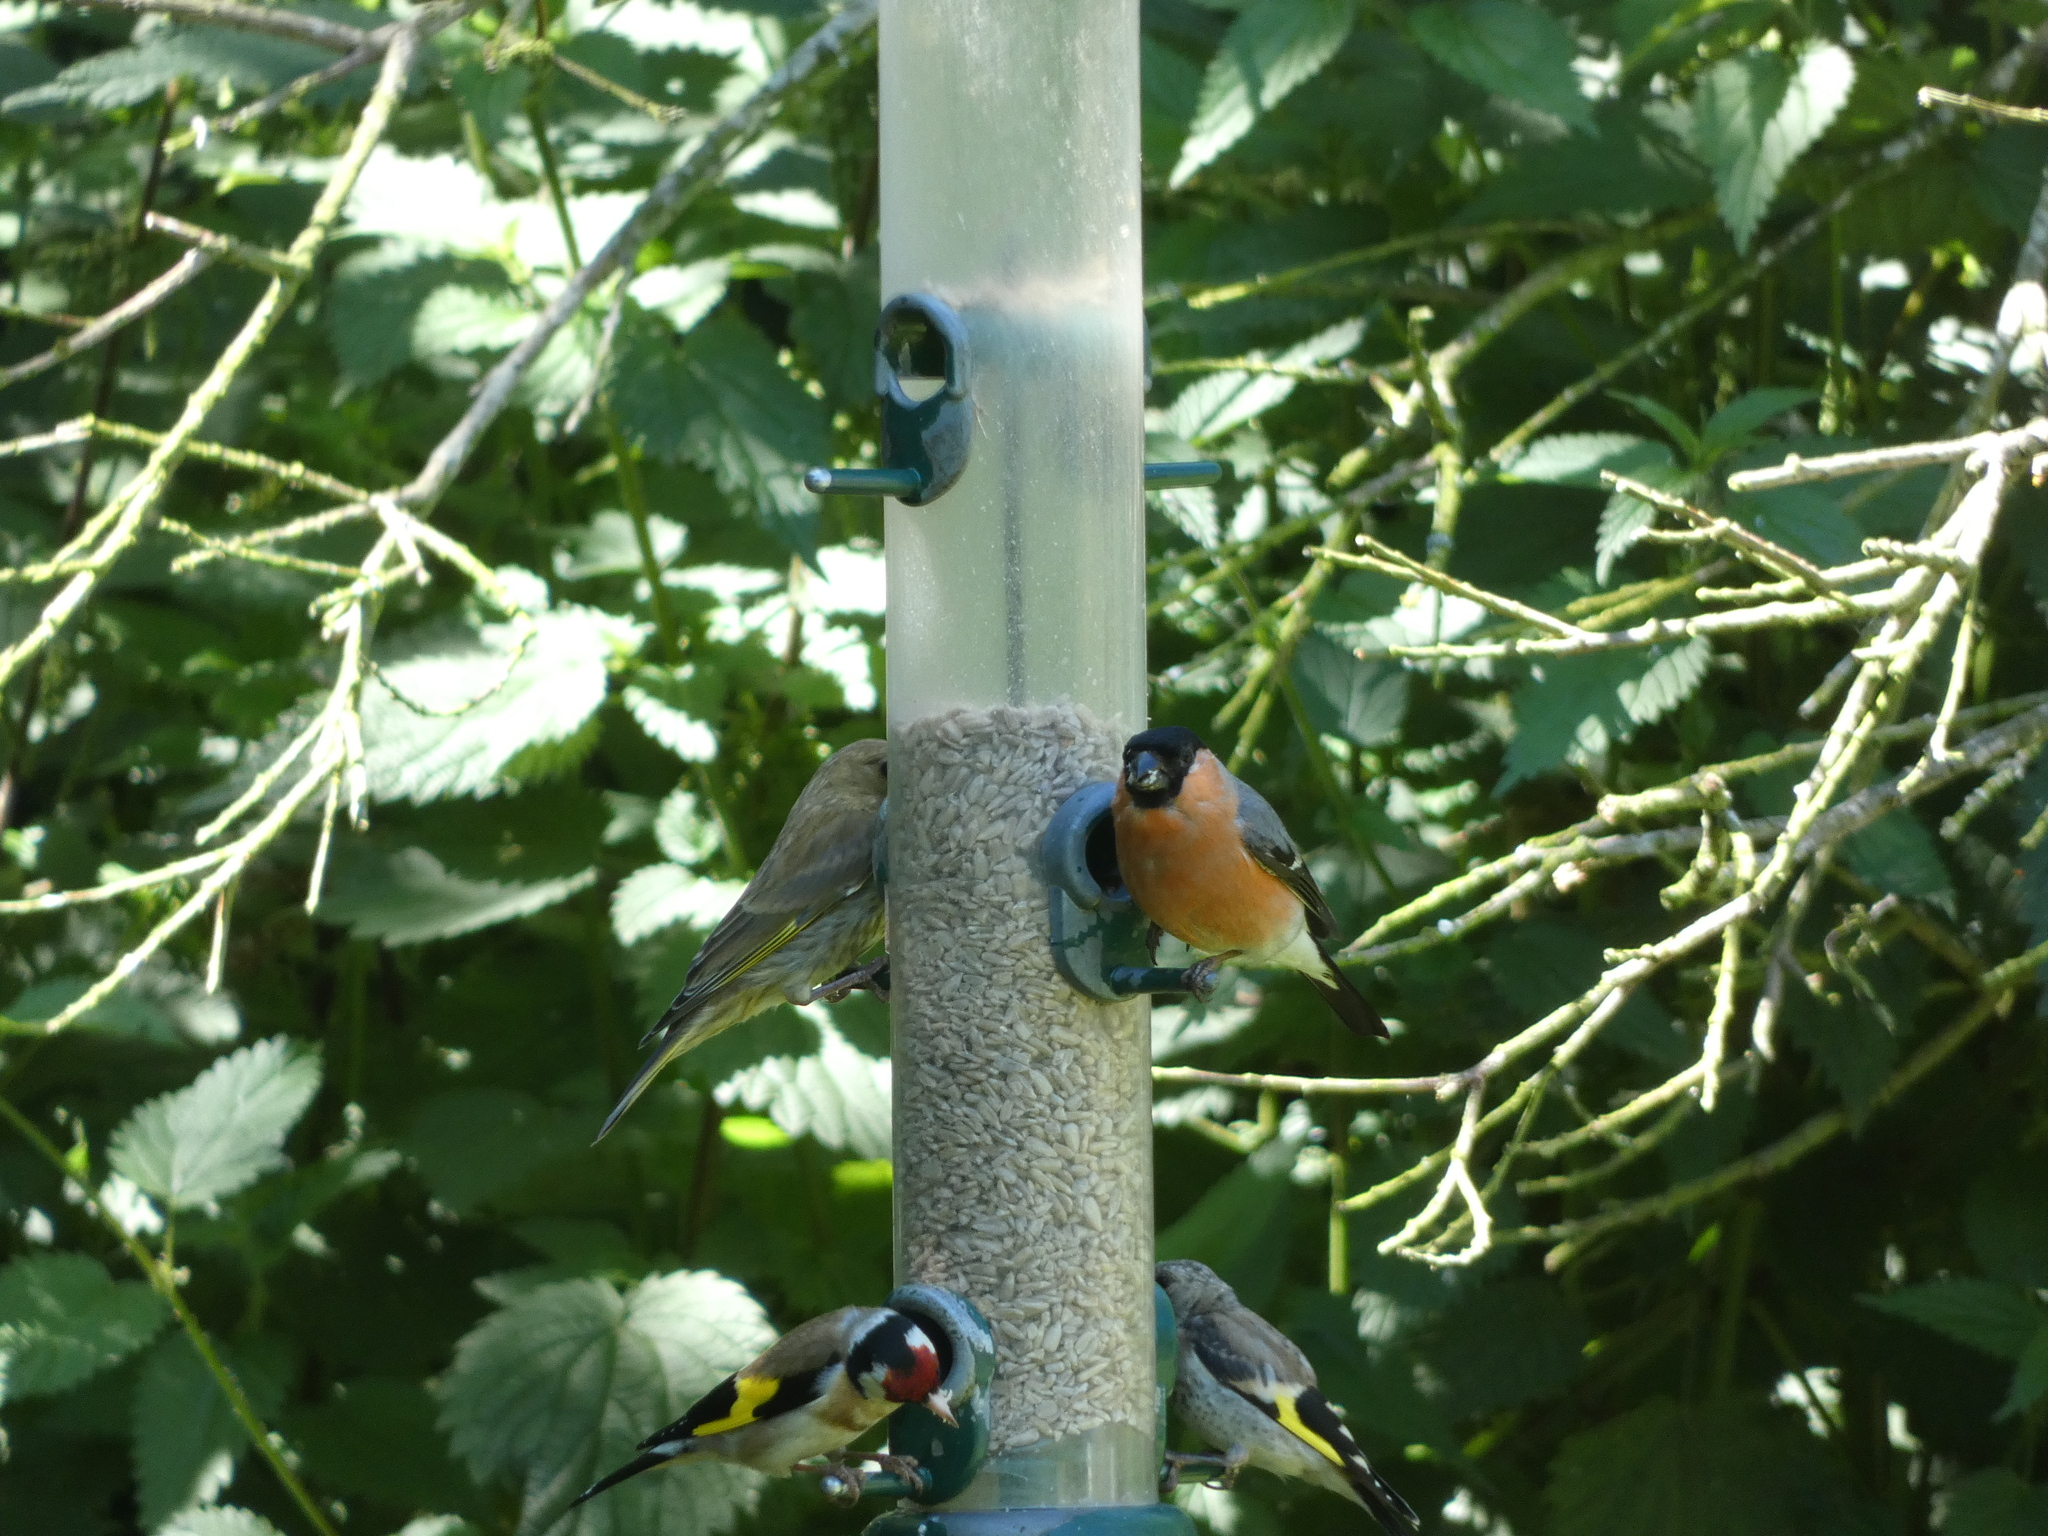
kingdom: Animalia
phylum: Chordata
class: Aves
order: Passeriformes
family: Fringillidae
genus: Pyrrhula
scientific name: Pyrrhula pyrrhula
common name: Eurasian bullfinch
